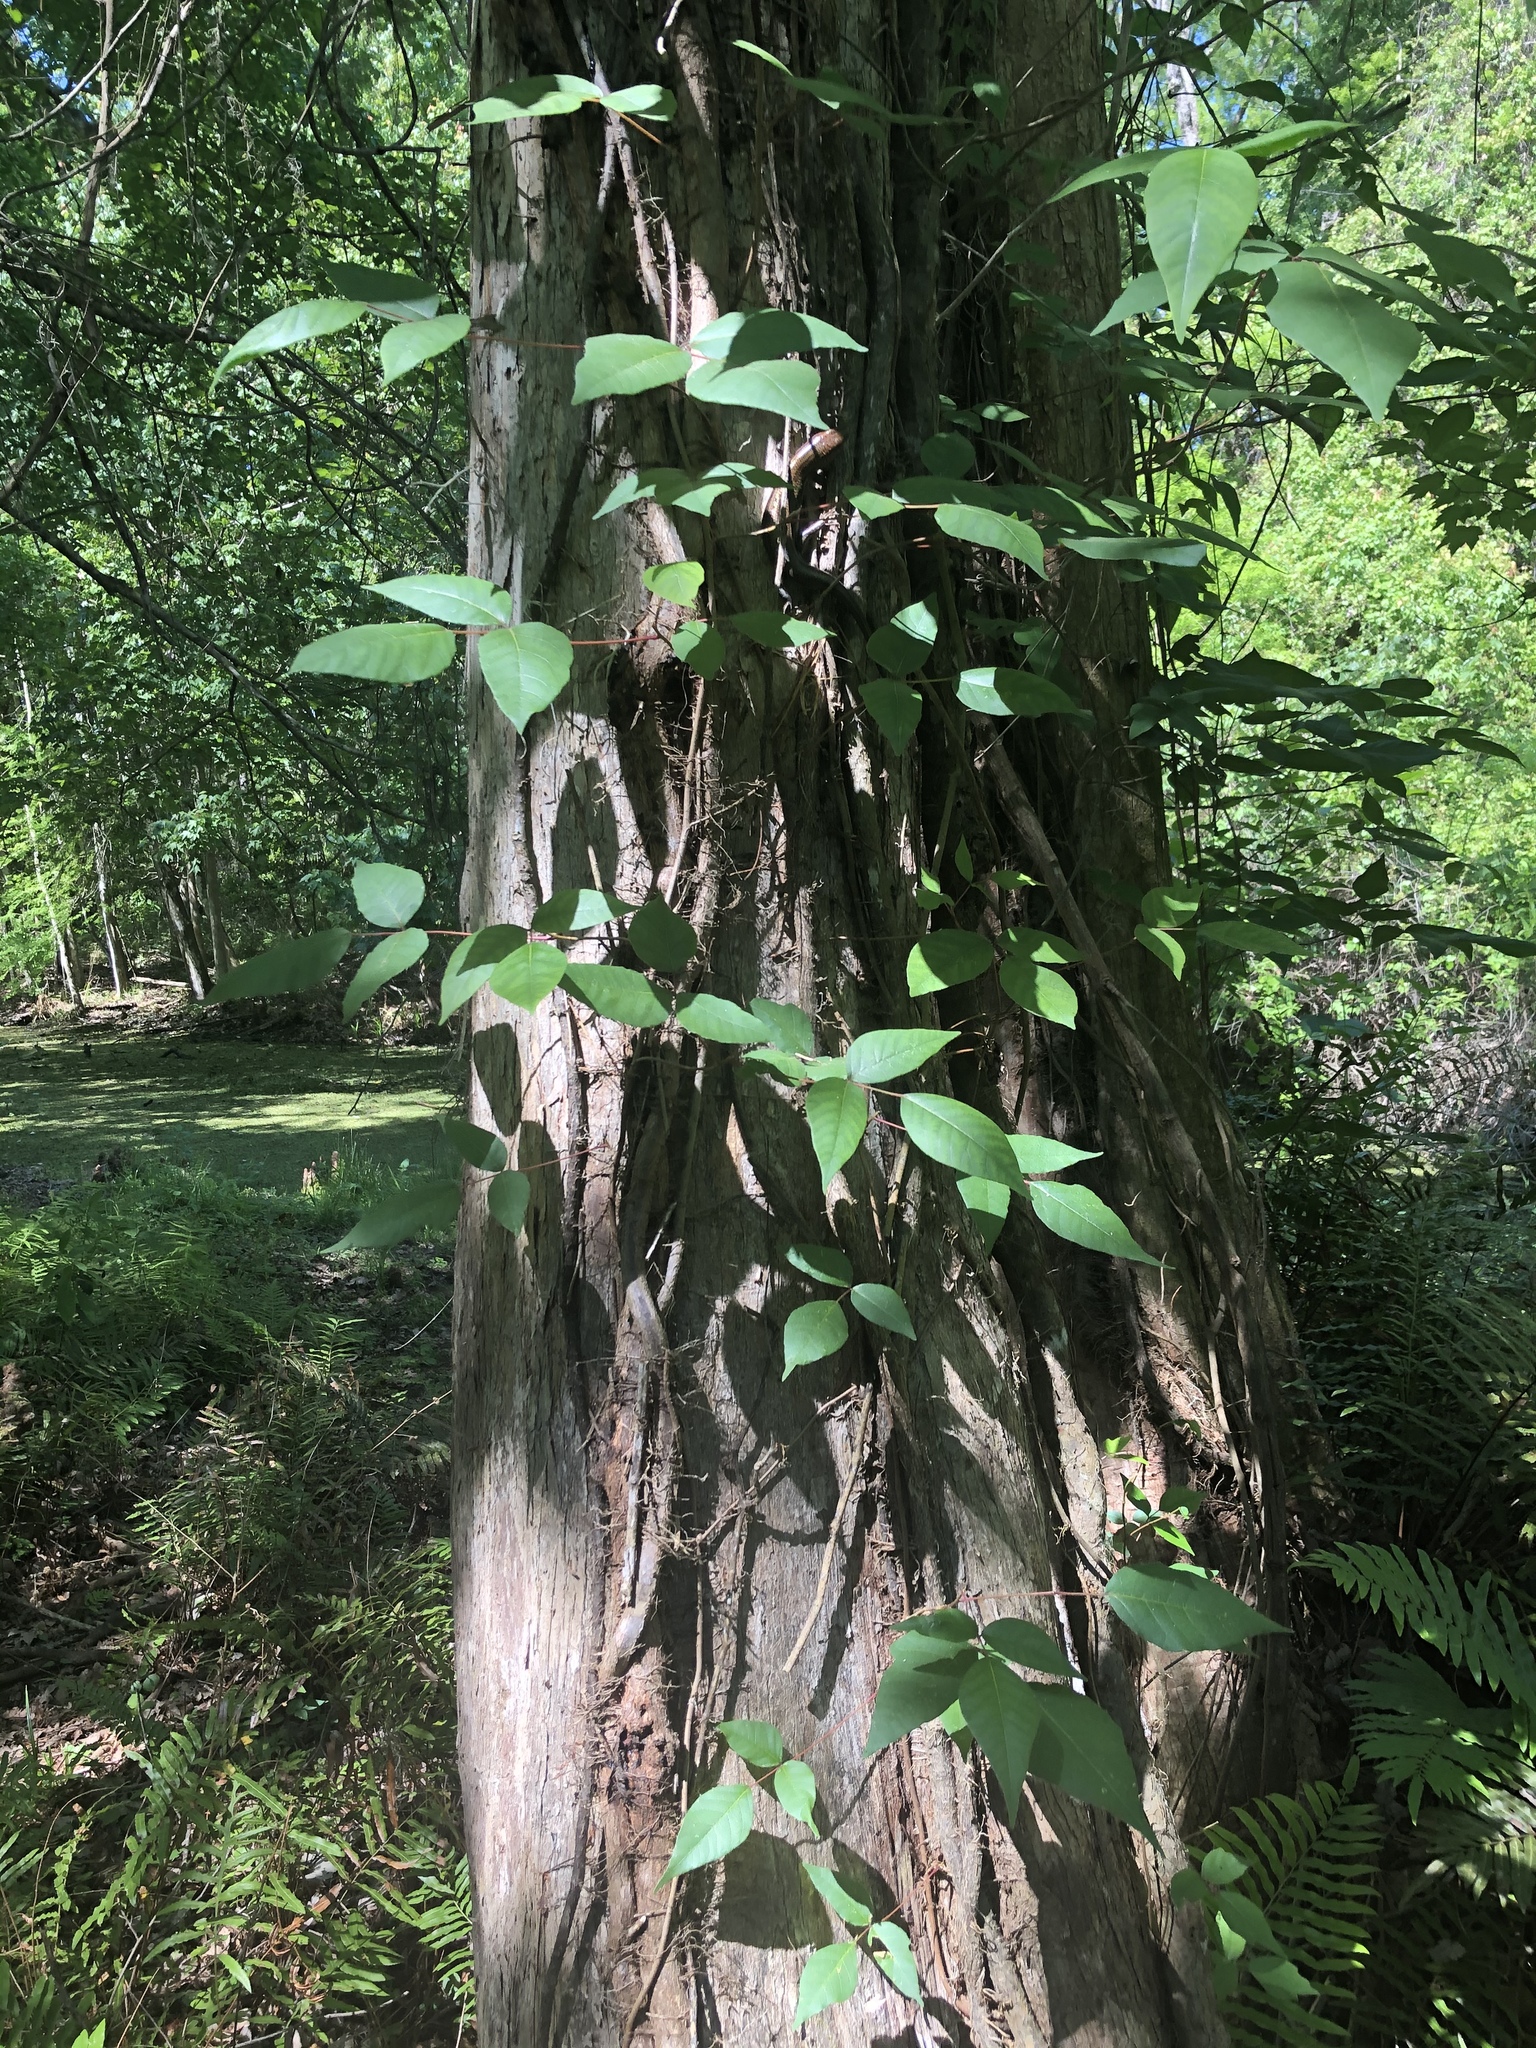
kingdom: Plantae
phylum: Tracheophyta
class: Magnoliopsida
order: Sapindales
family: Anacardiaceae
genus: Toxicodendron
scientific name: Toxicodendron radicans
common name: Poison ivy
